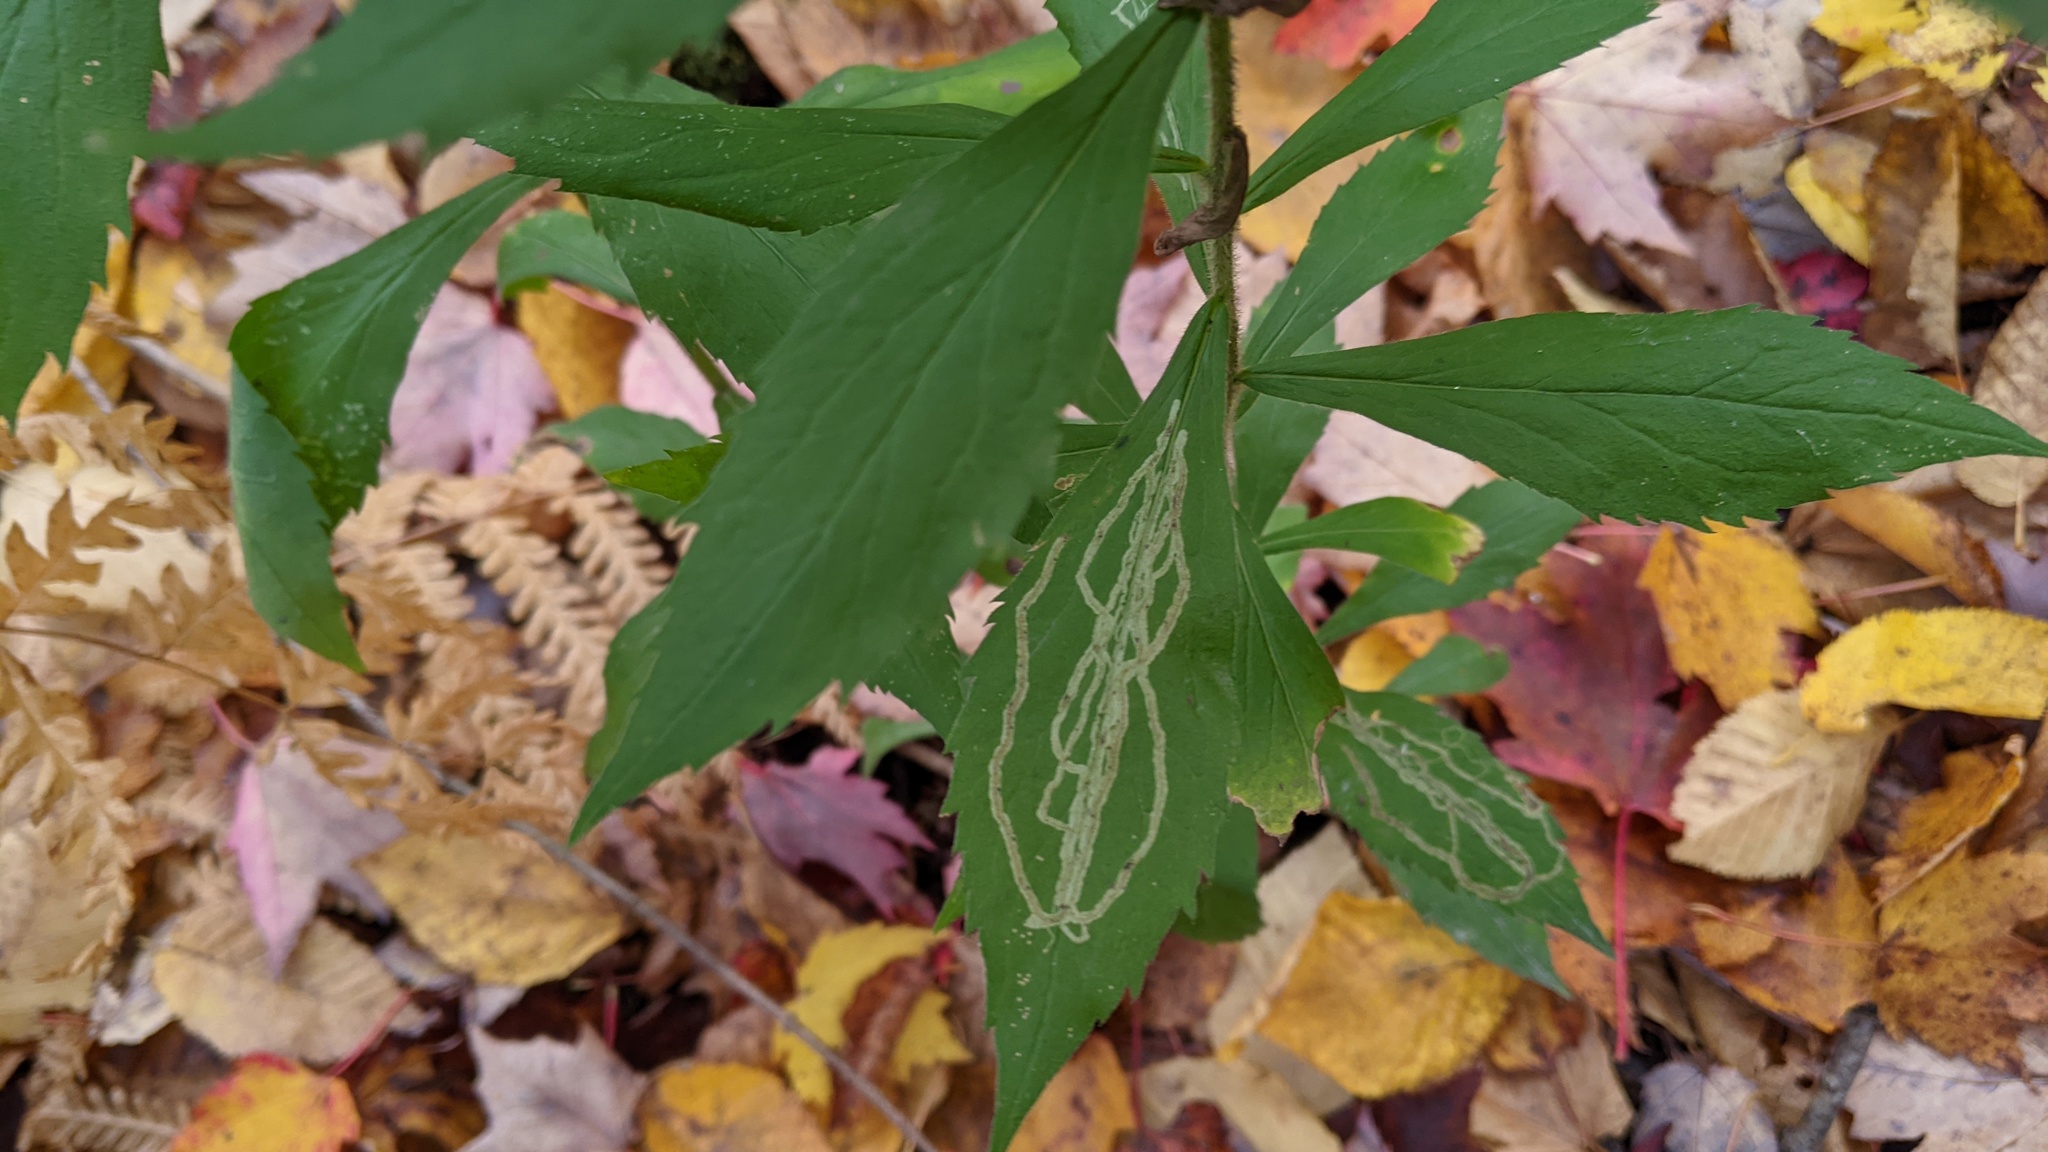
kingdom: Animalia
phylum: Arthropoda
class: Insecta
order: Diptera
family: Agromyzidae
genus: Ophiomyia
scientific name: Ophiomyia maura
